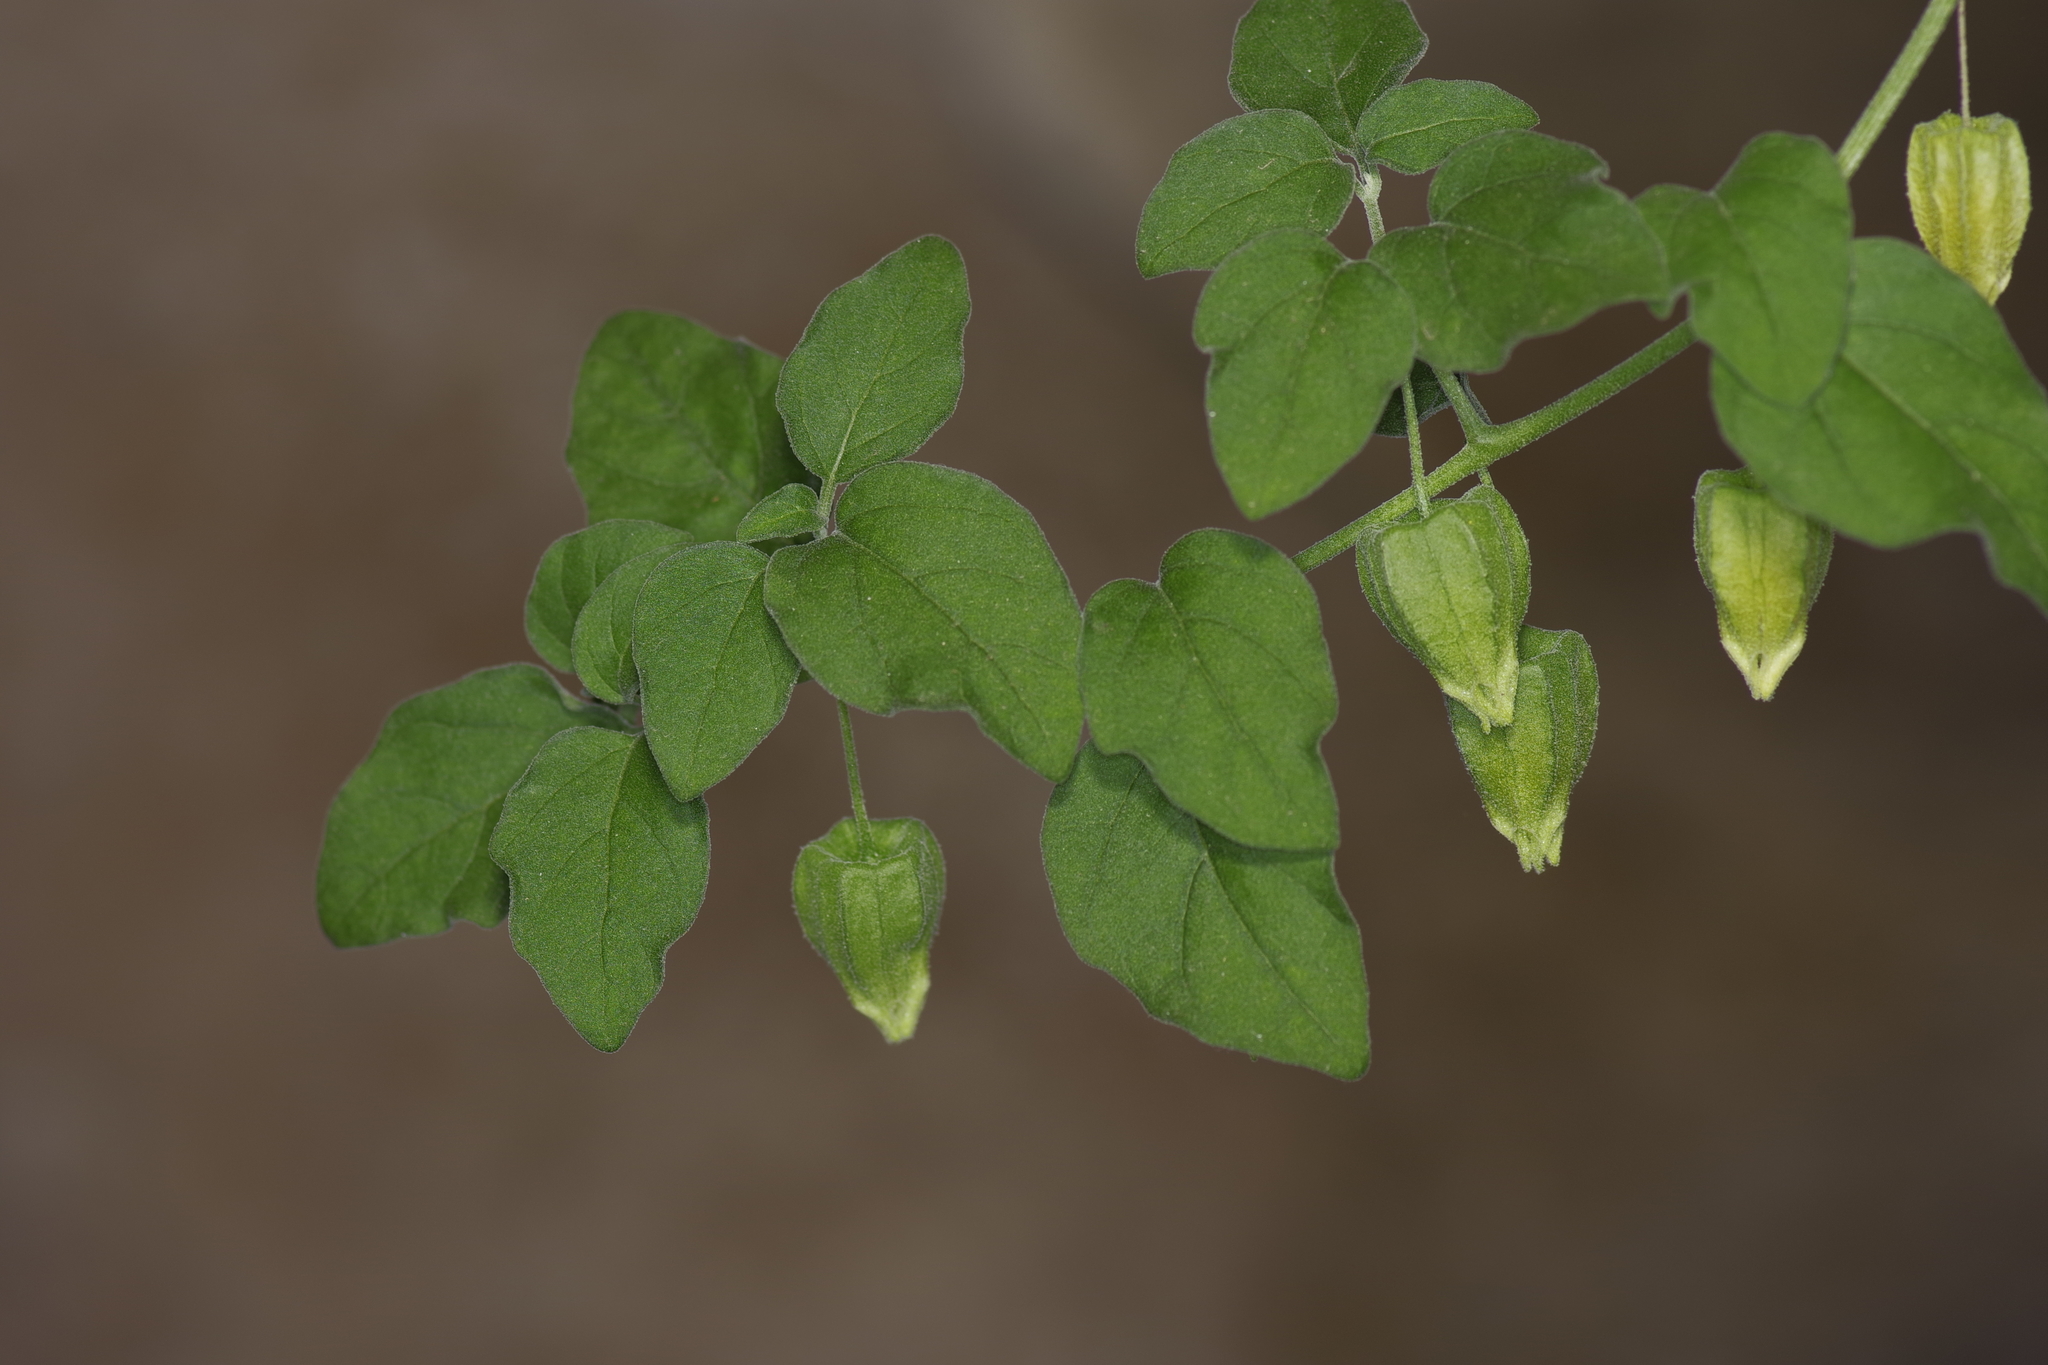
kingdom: Plantae
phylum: Tracheophyta
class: Magnoliopsida
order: Solanales
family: Solanaceae
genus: Physalis
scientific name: Physalis cinerascens
